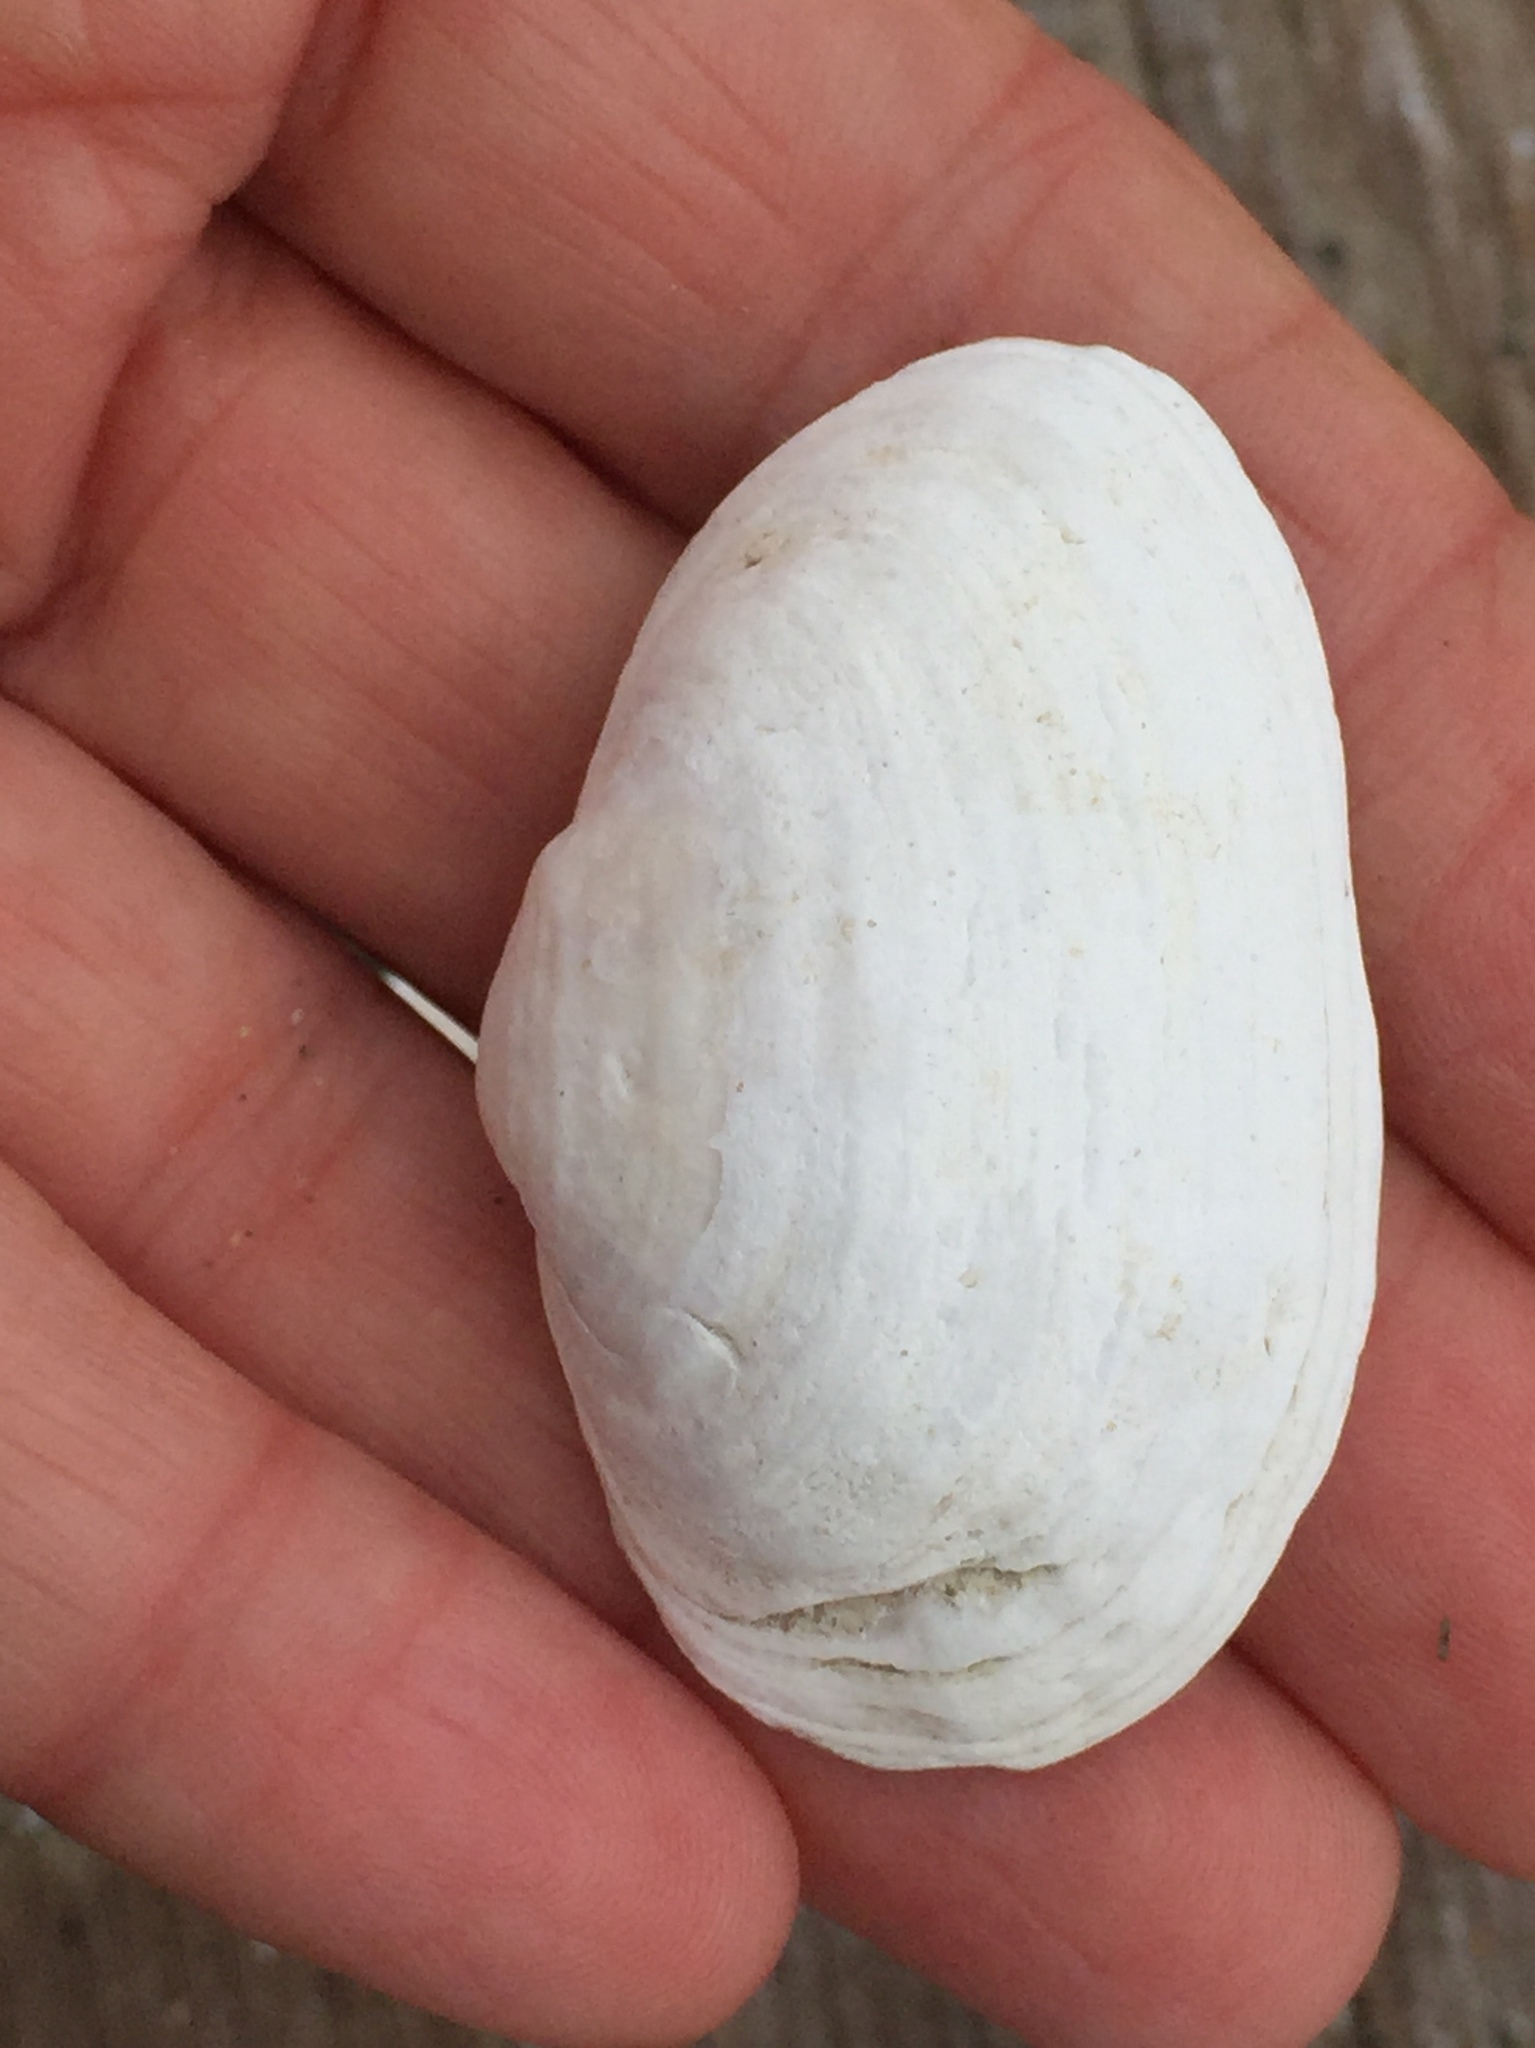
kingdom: Animalia
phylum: Mollusca
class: Bivalvia
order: Myida
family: Myidae
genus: Mya
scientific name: Mya arenaria
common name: Soft-shelled clam
